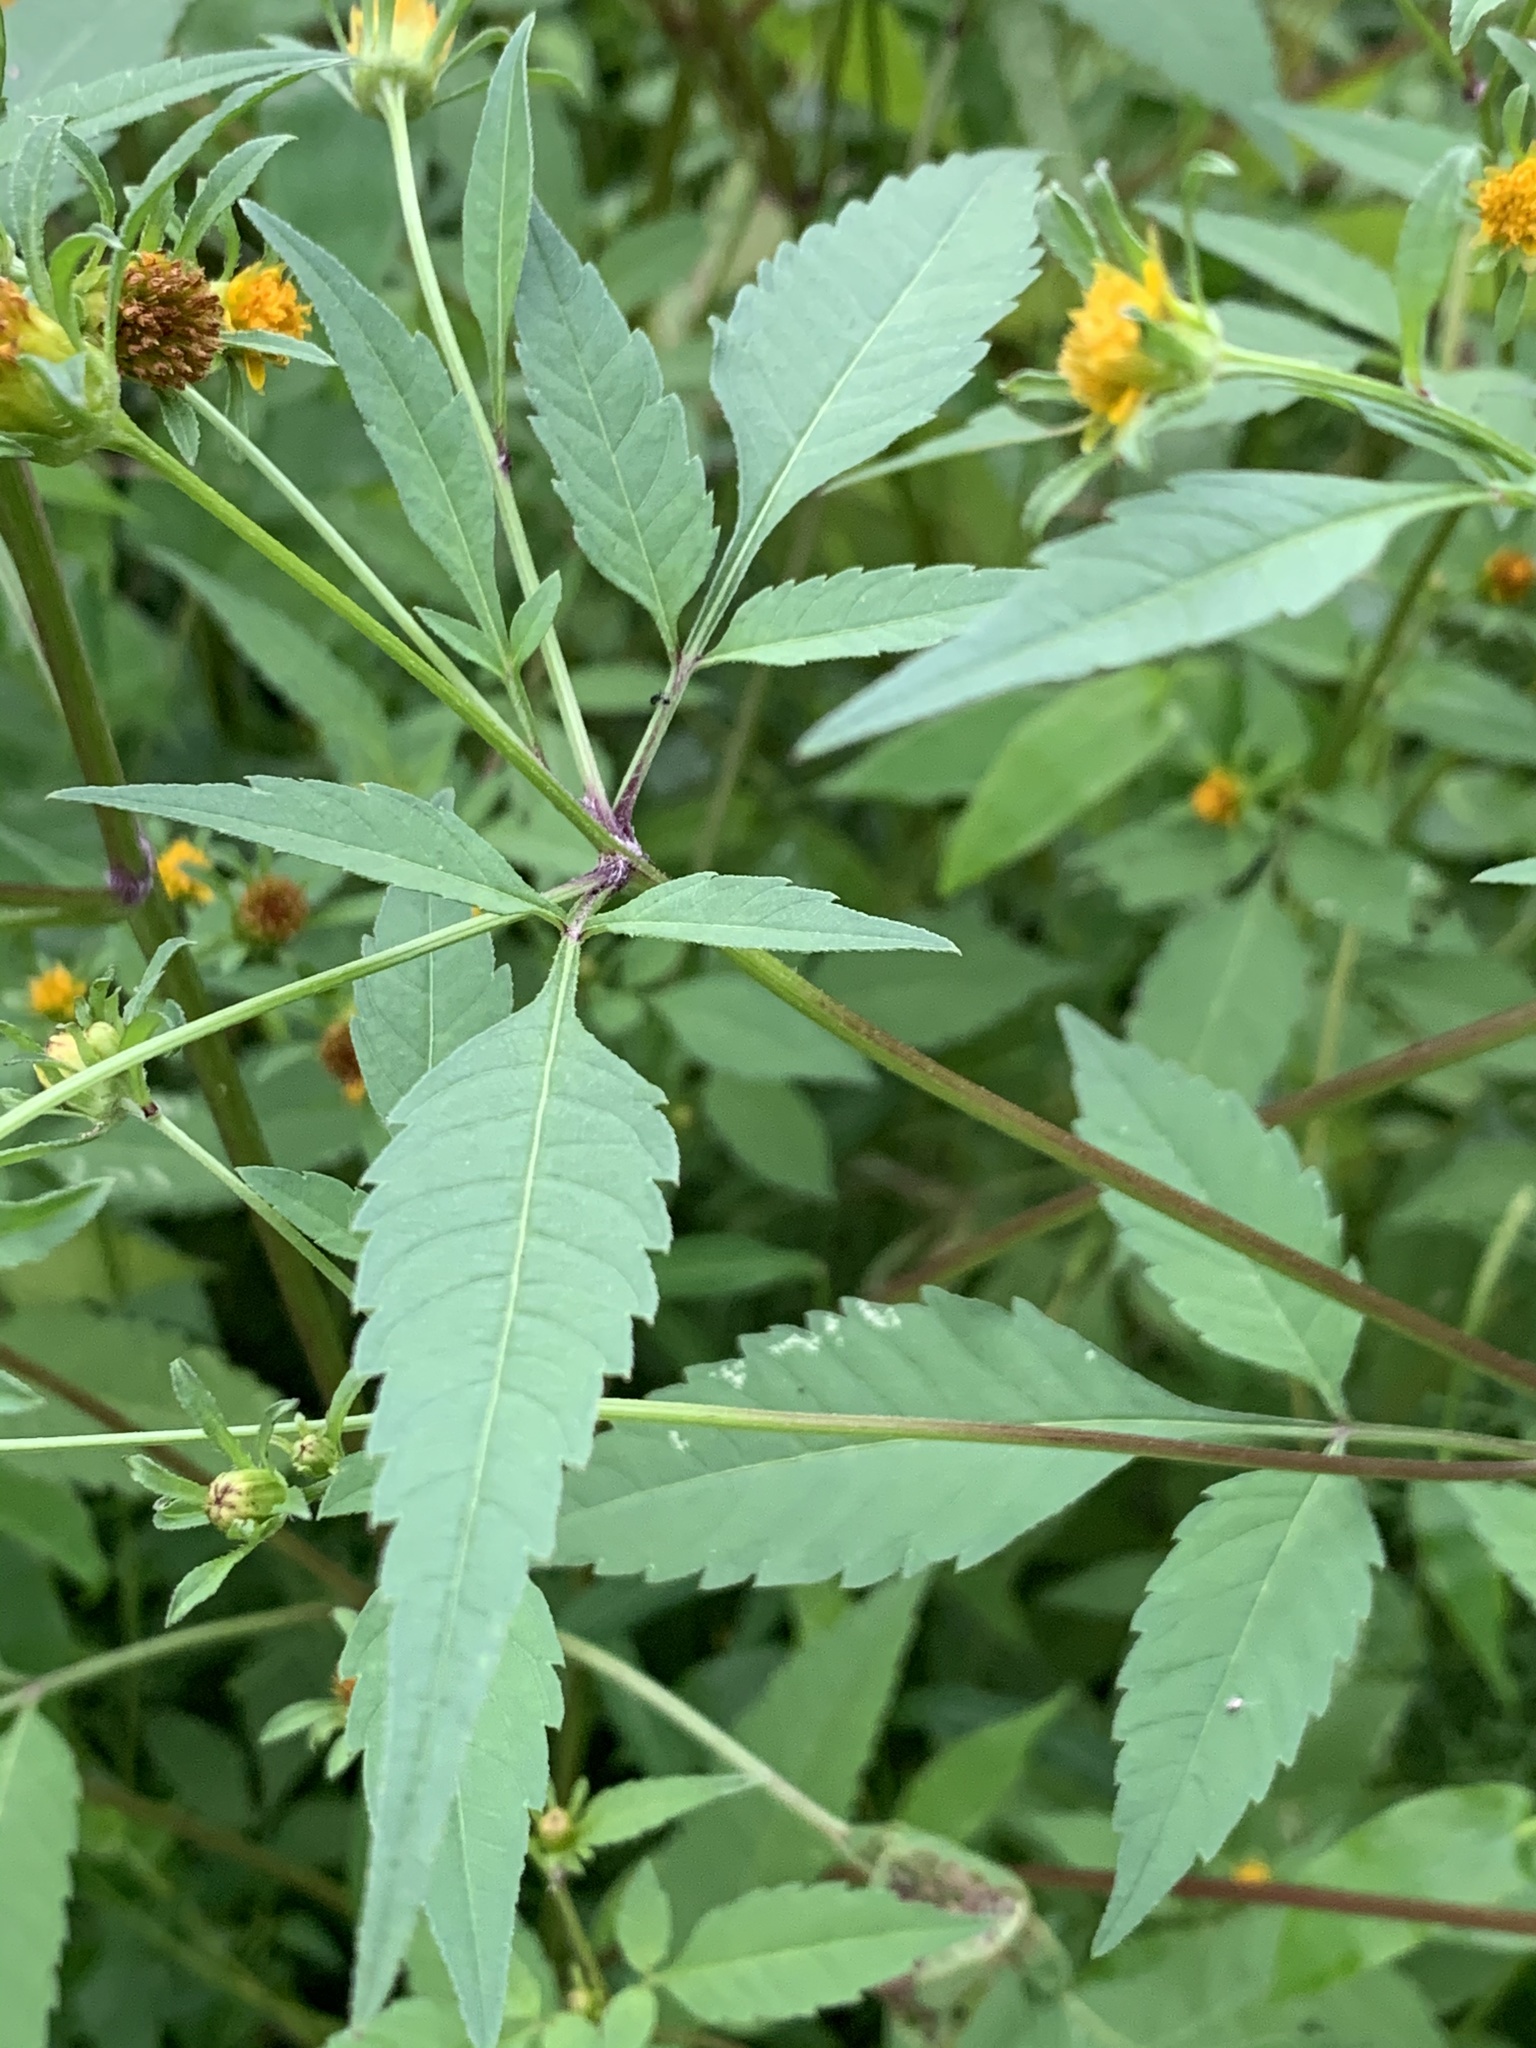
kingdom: Plantae
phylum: Tracheophyta
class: Magnoliopsida
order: Asterales
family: Asteraceae
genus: Bidens
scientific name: Bidens frondosa
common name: Beggarticks
